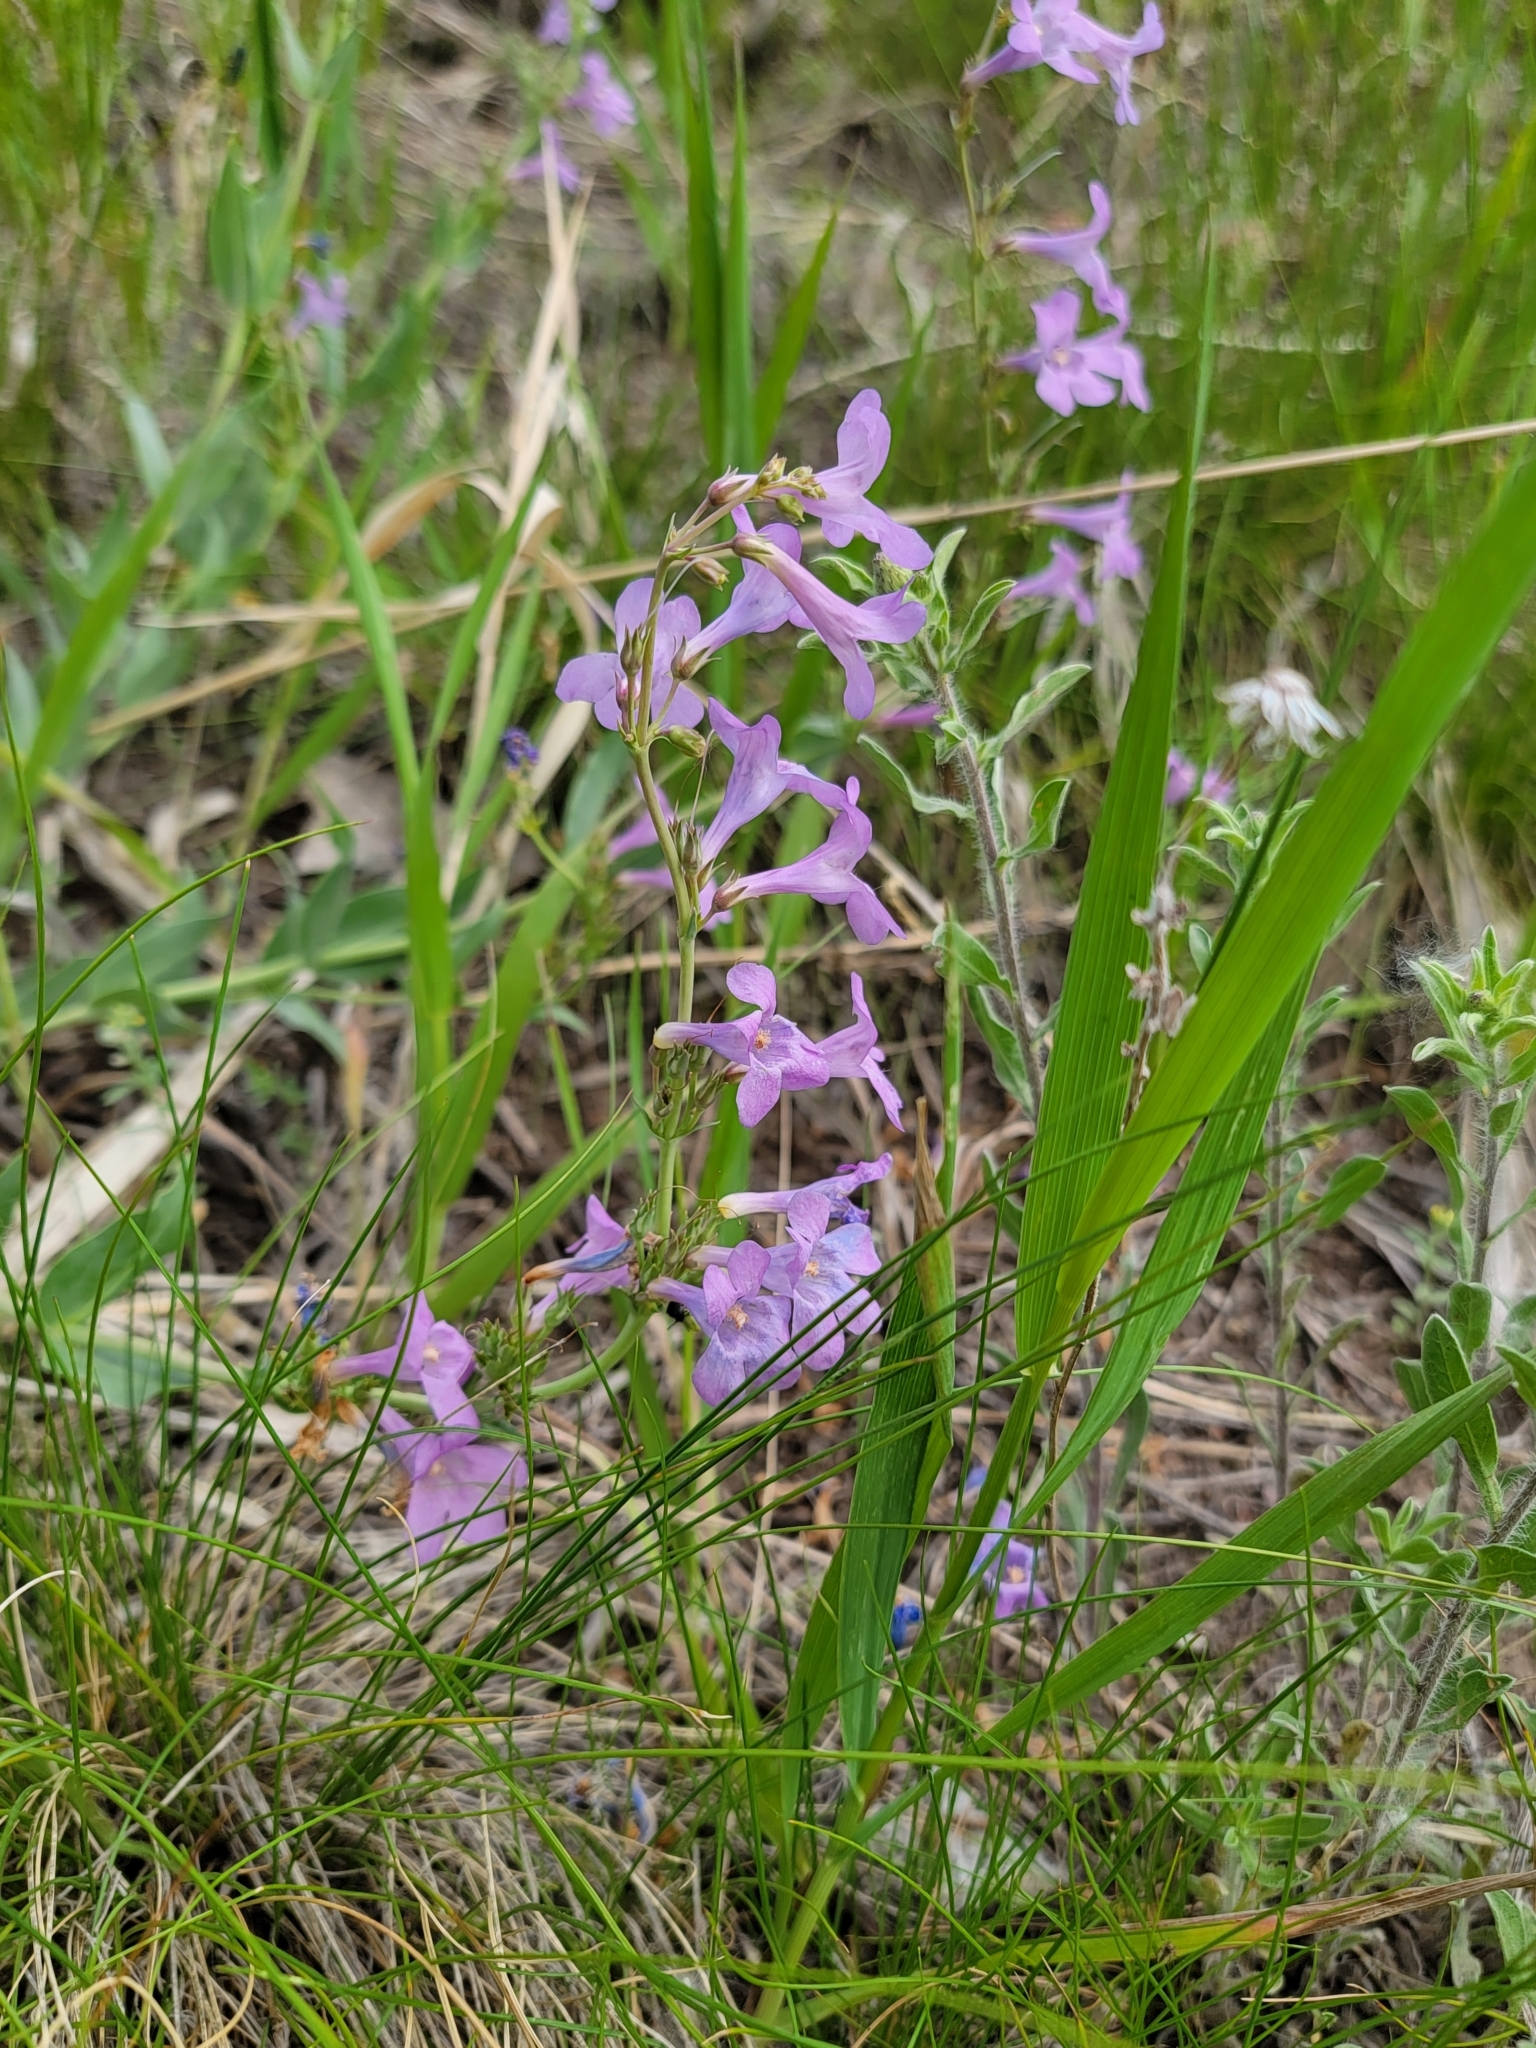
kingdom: Plantae
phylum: Tracheophyta
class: Magnoliopsida
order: Lamiales
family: Plantaginaceae
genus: Penstemon
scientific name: Penstemon secundiflorus
